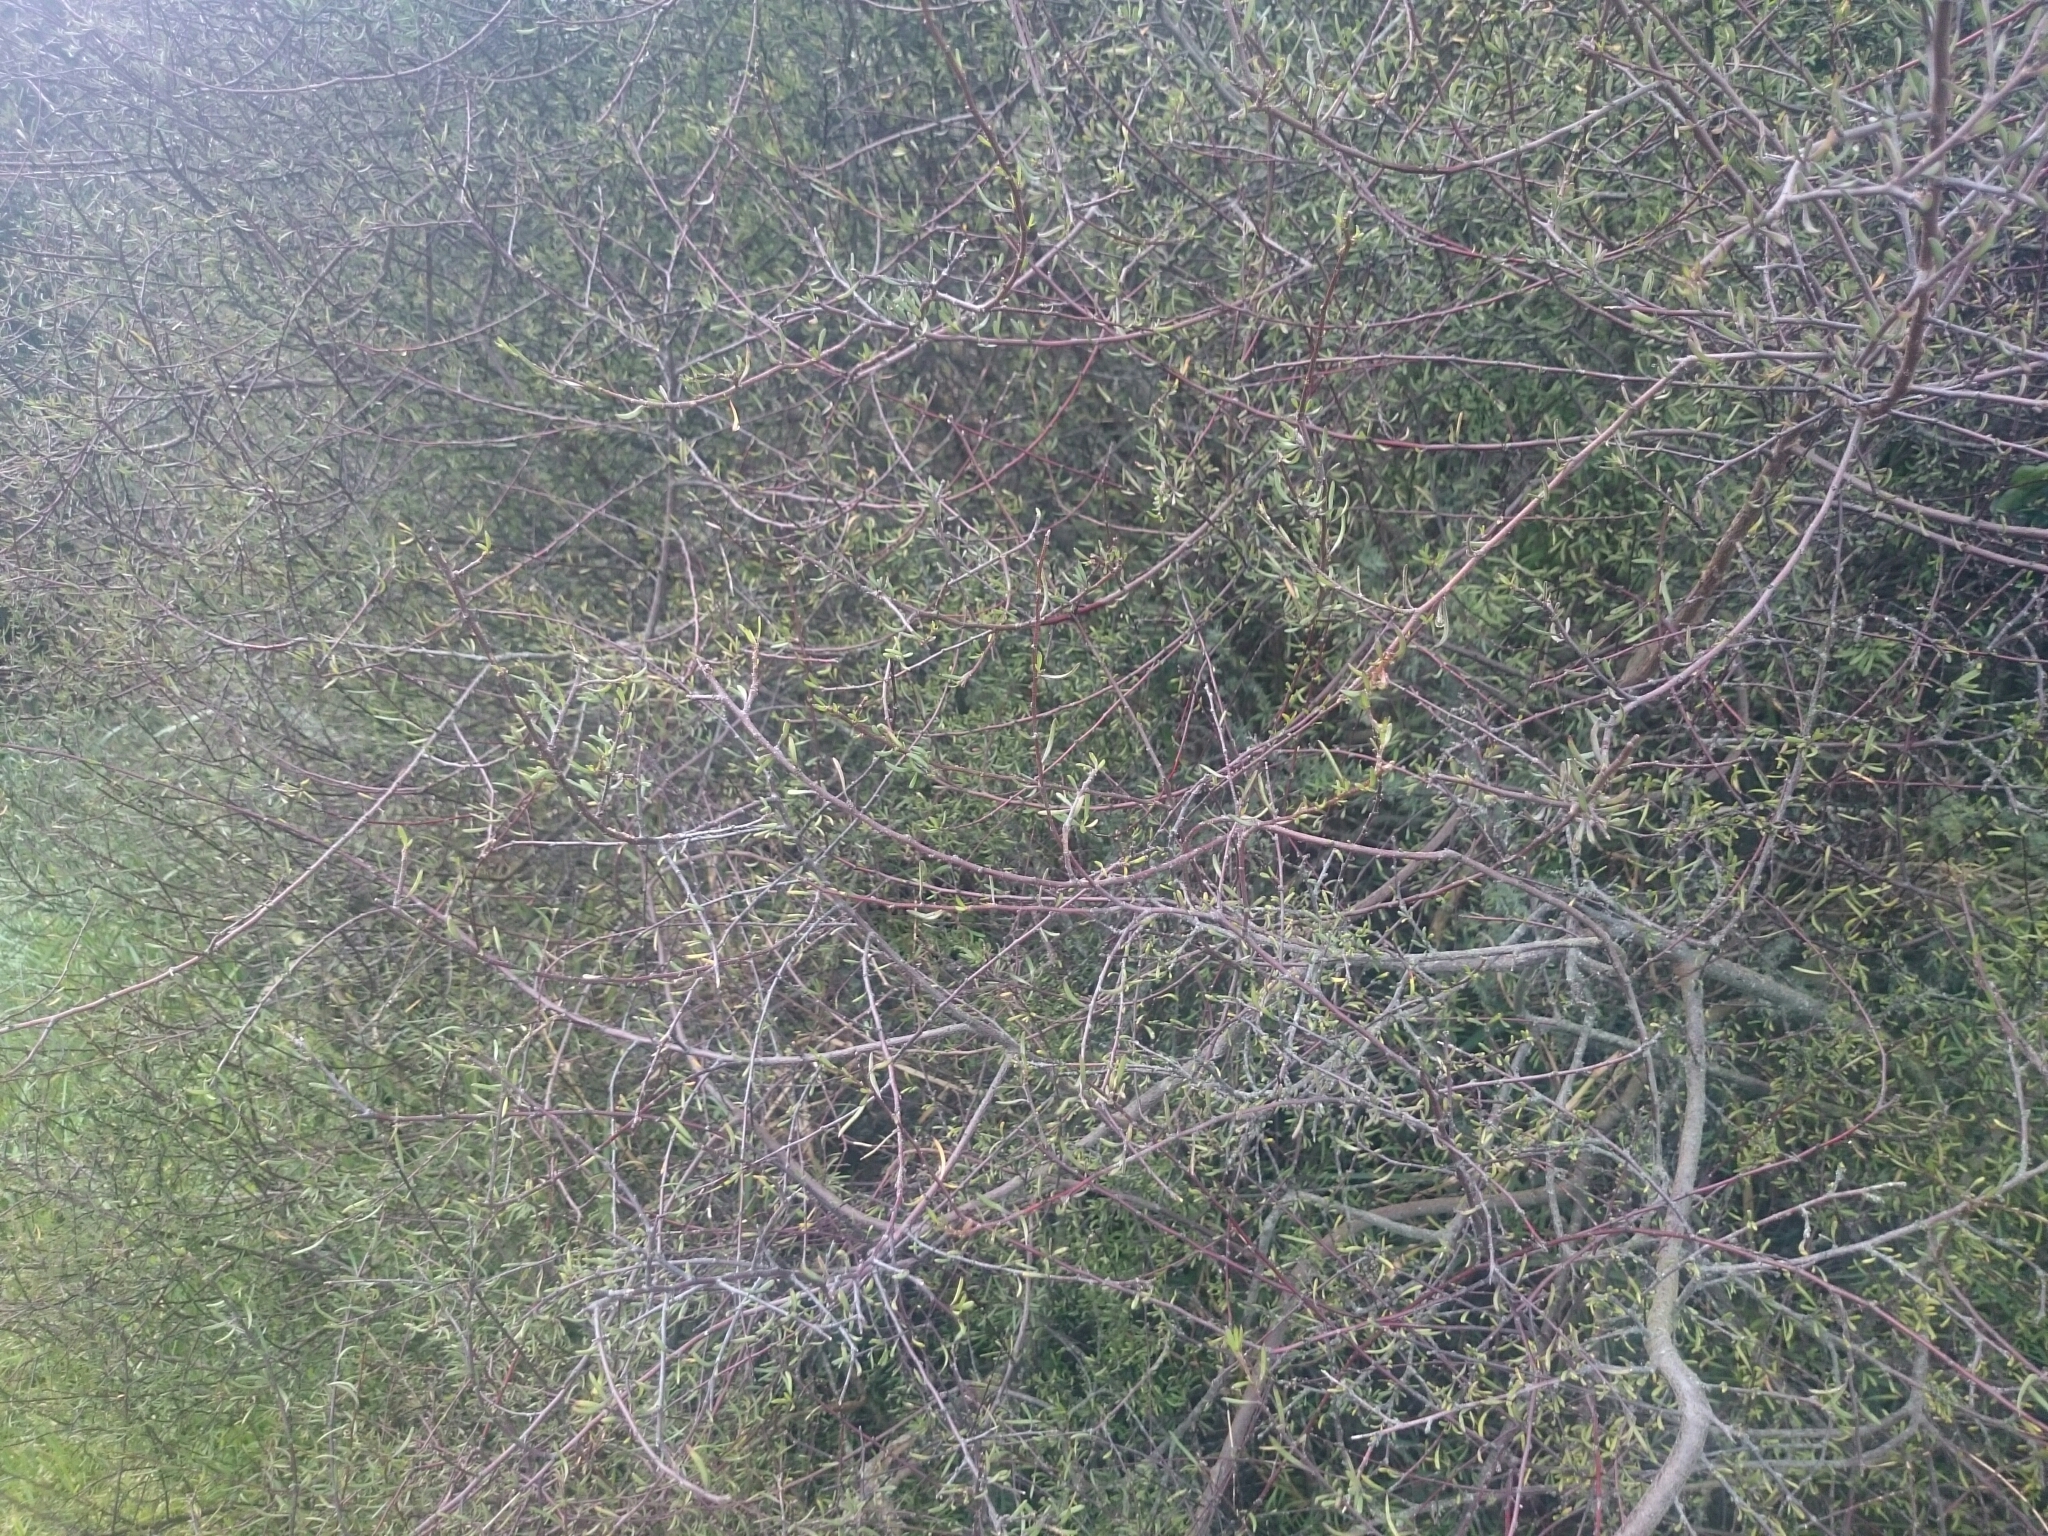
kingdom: Plantae
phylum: Tracheophyta
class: Magnoliopsida
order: Malvales
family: Malvaceae
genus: Plagianthus
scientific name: Plagianthus divaricatus
